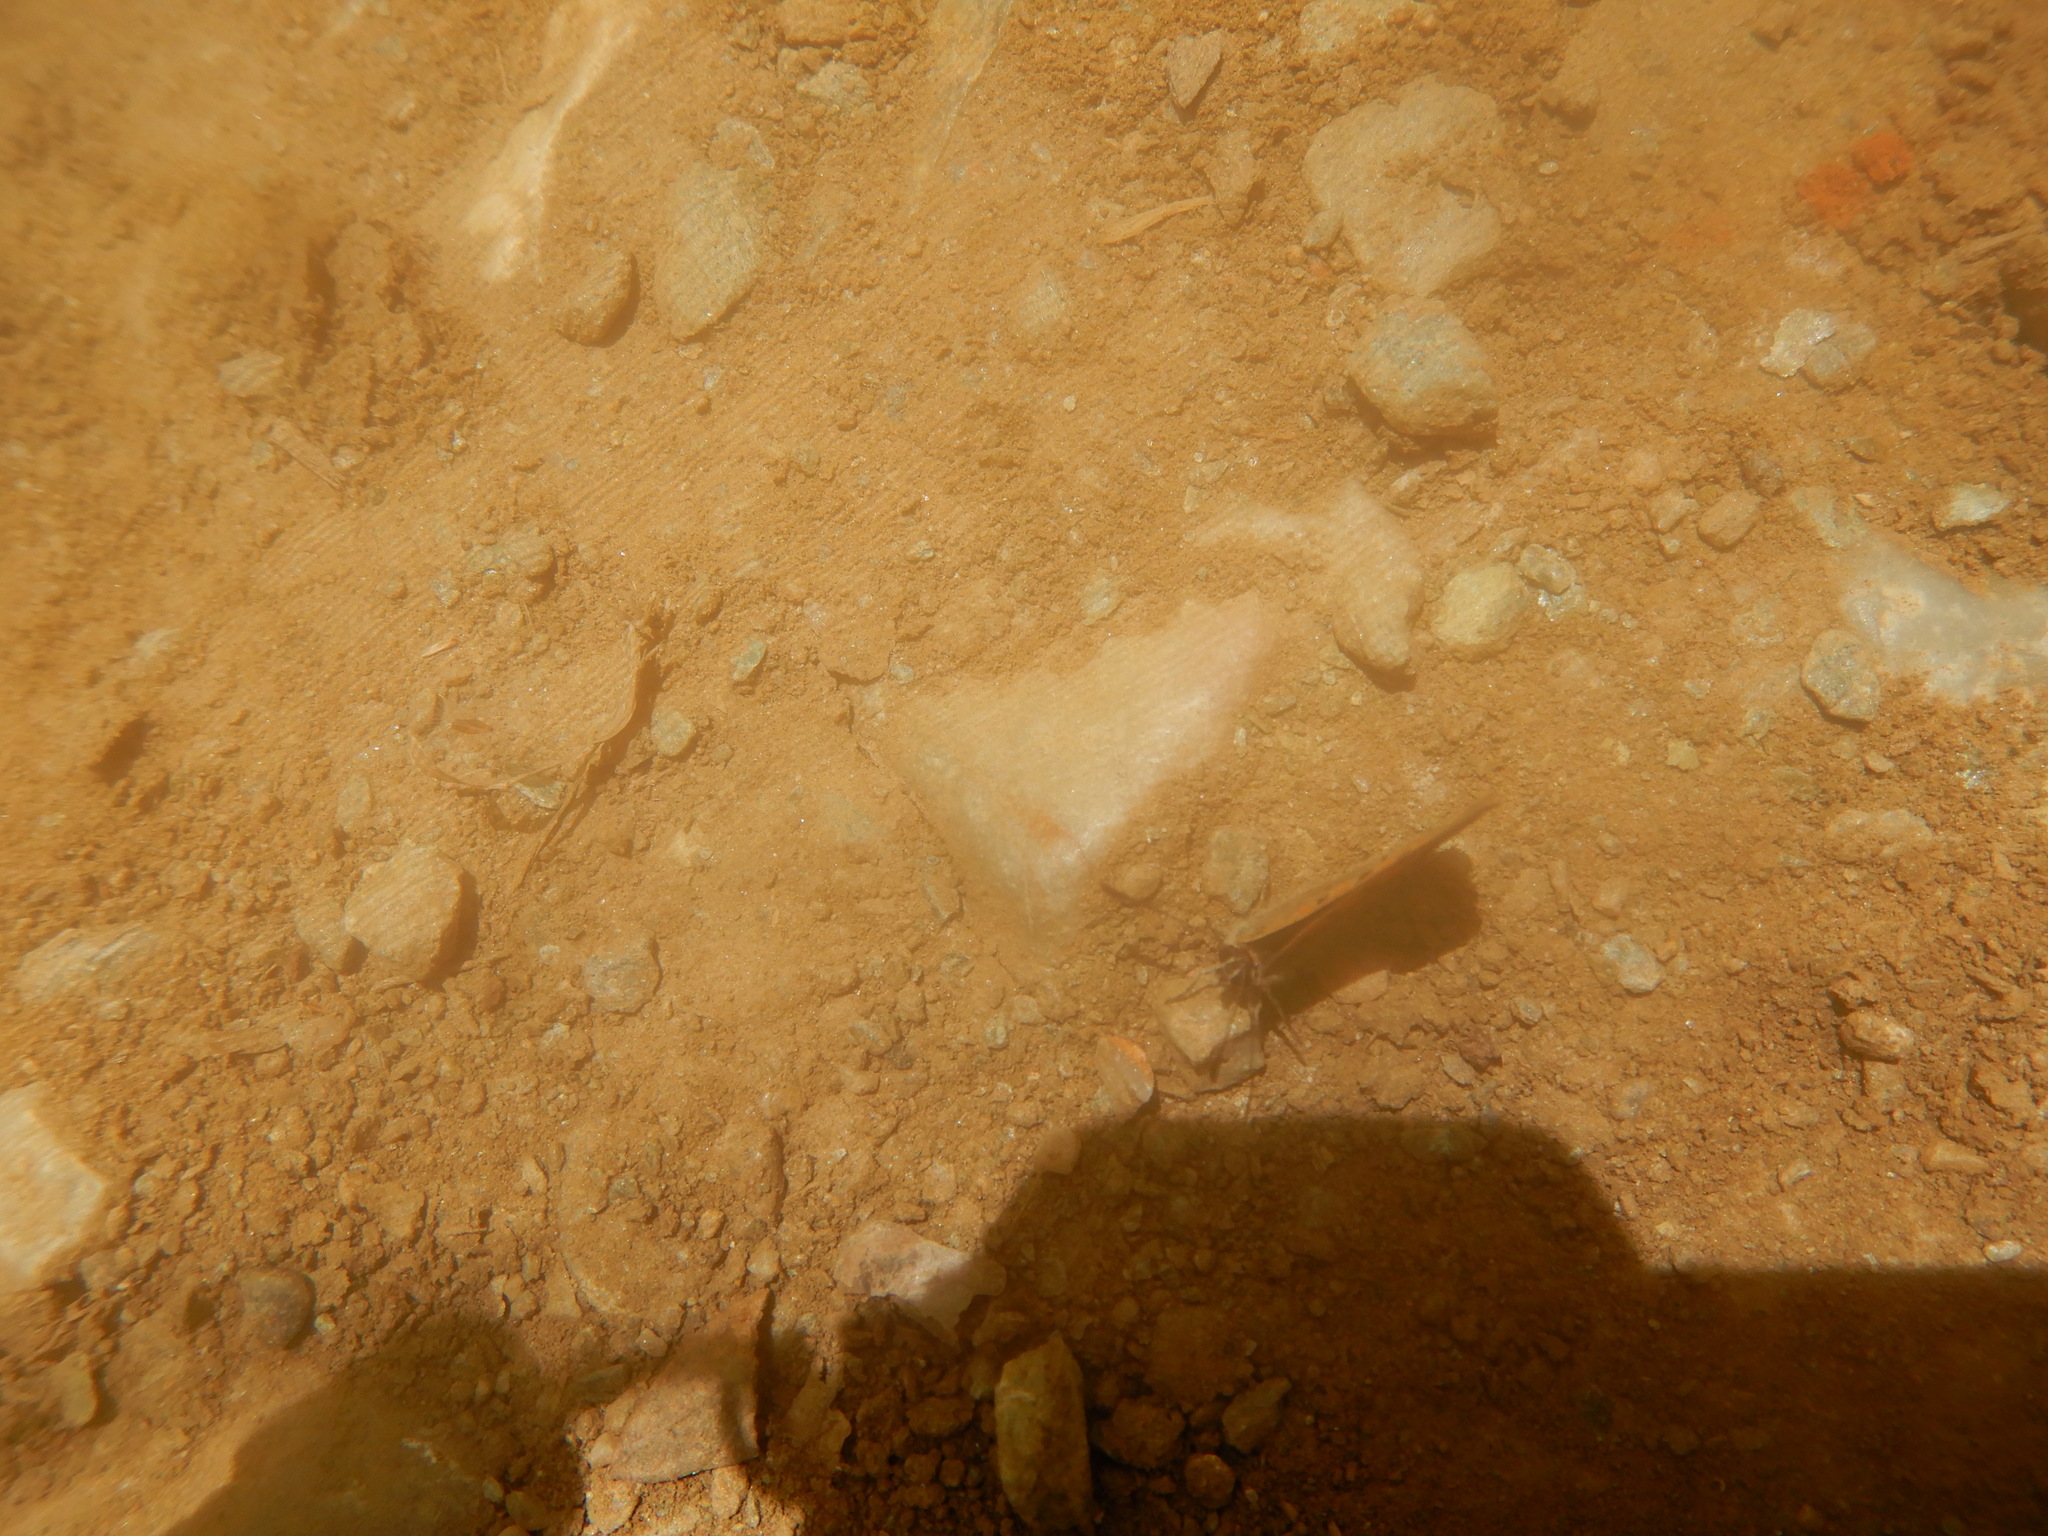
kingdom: Animalia
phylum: Arthropoda
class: Insecta
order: Lepidoptera
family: Lycaenidae
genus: Lycaena
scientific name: Lycaena phlaeas
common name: Small copper
